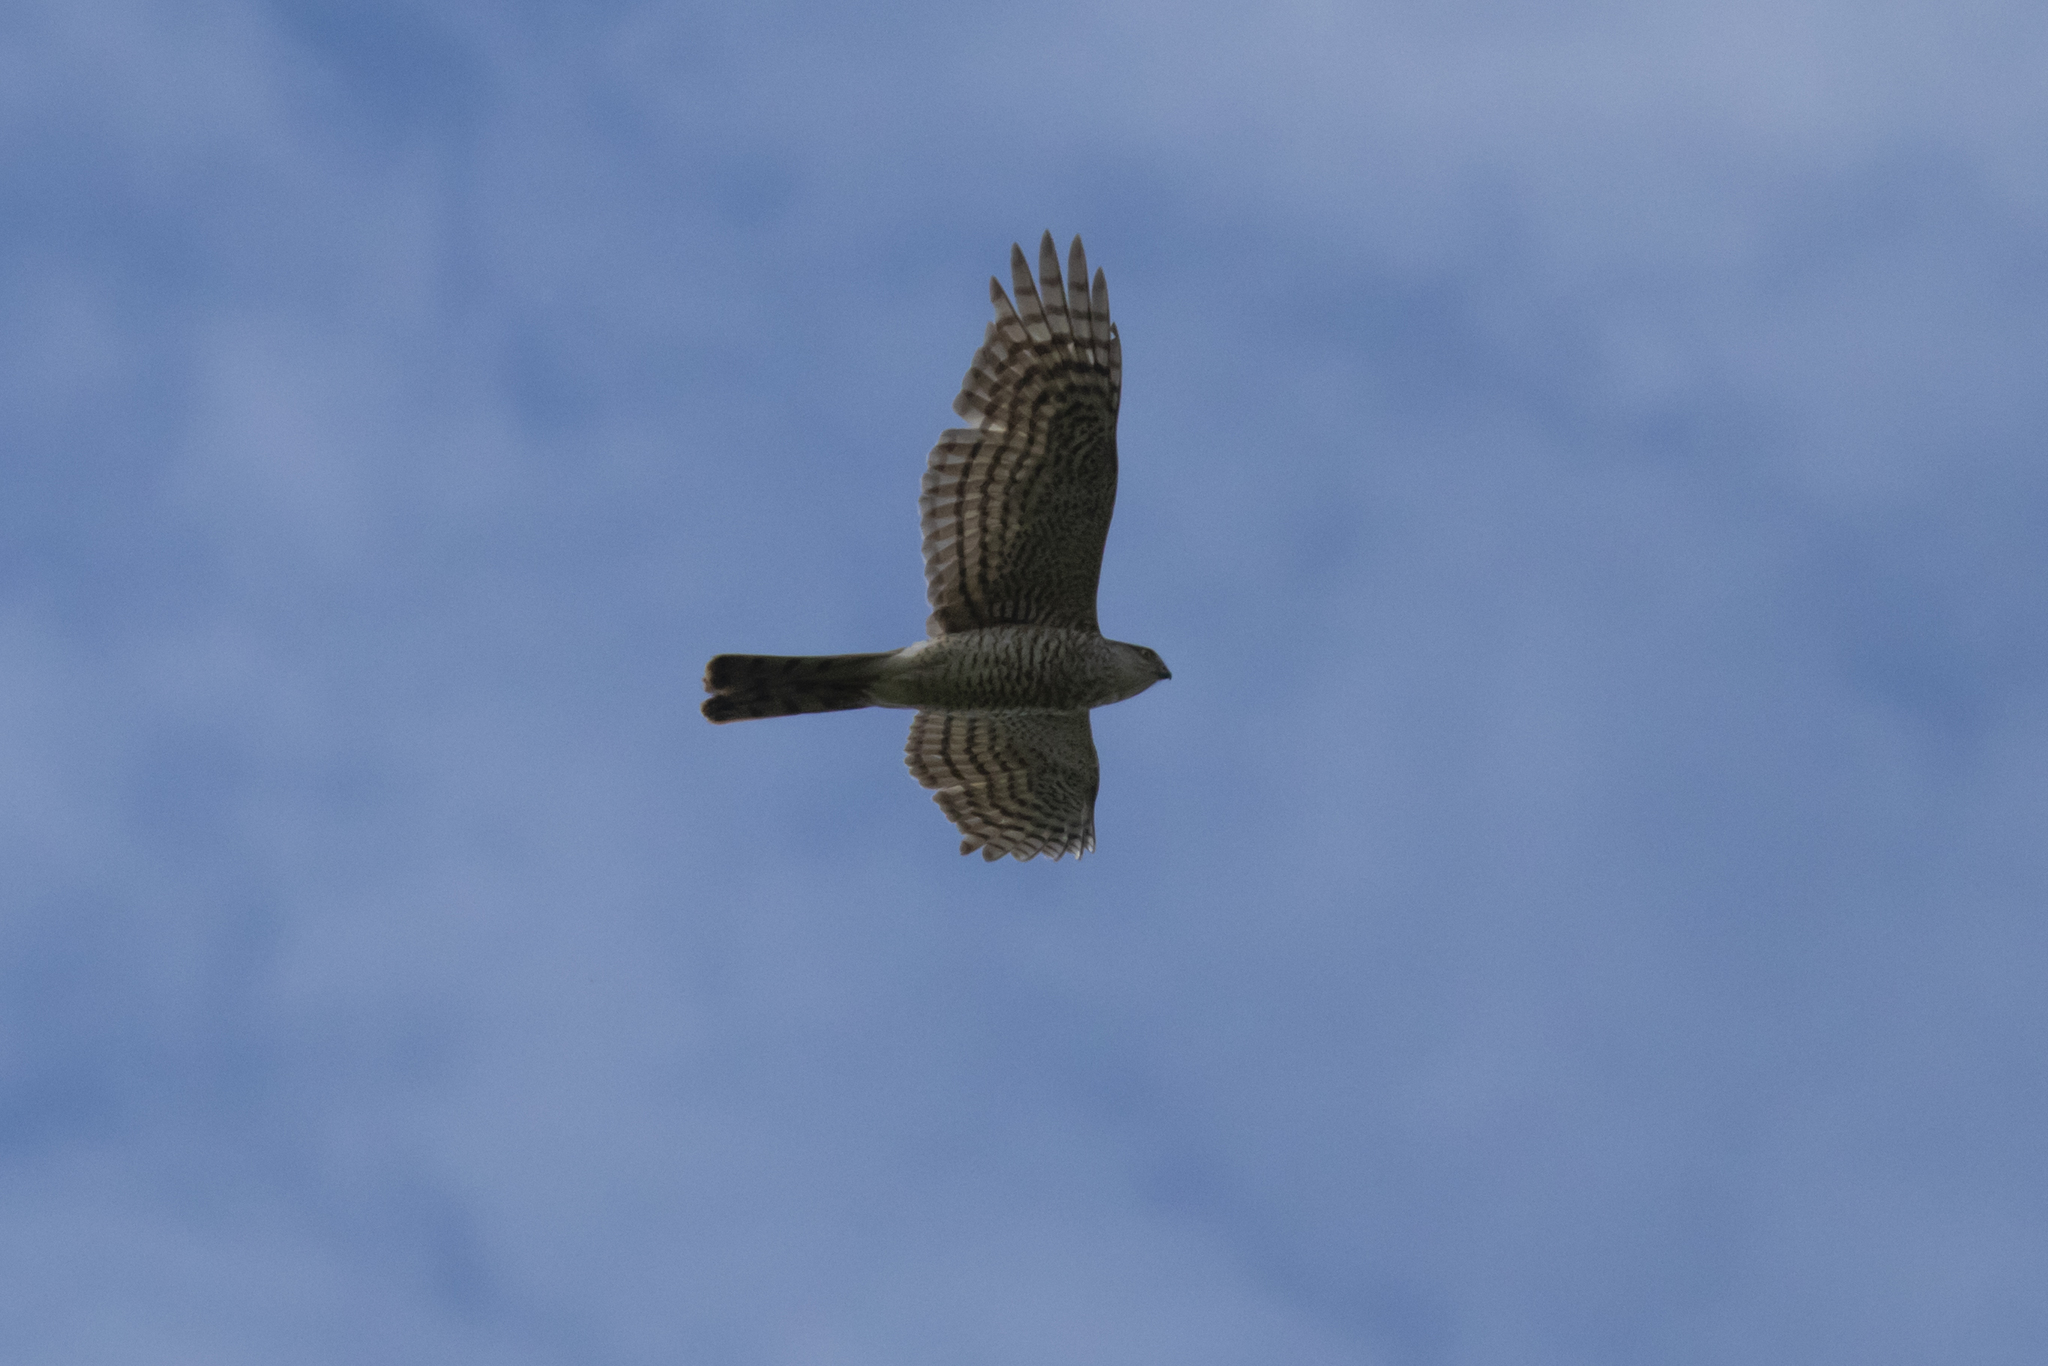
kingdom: Animalia
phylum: Chordata
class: Aves
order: Accipitriformes
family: Accipitridae
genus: Accipiter
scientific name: Accipiter nisus
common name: Eurasian sparrowhawk
